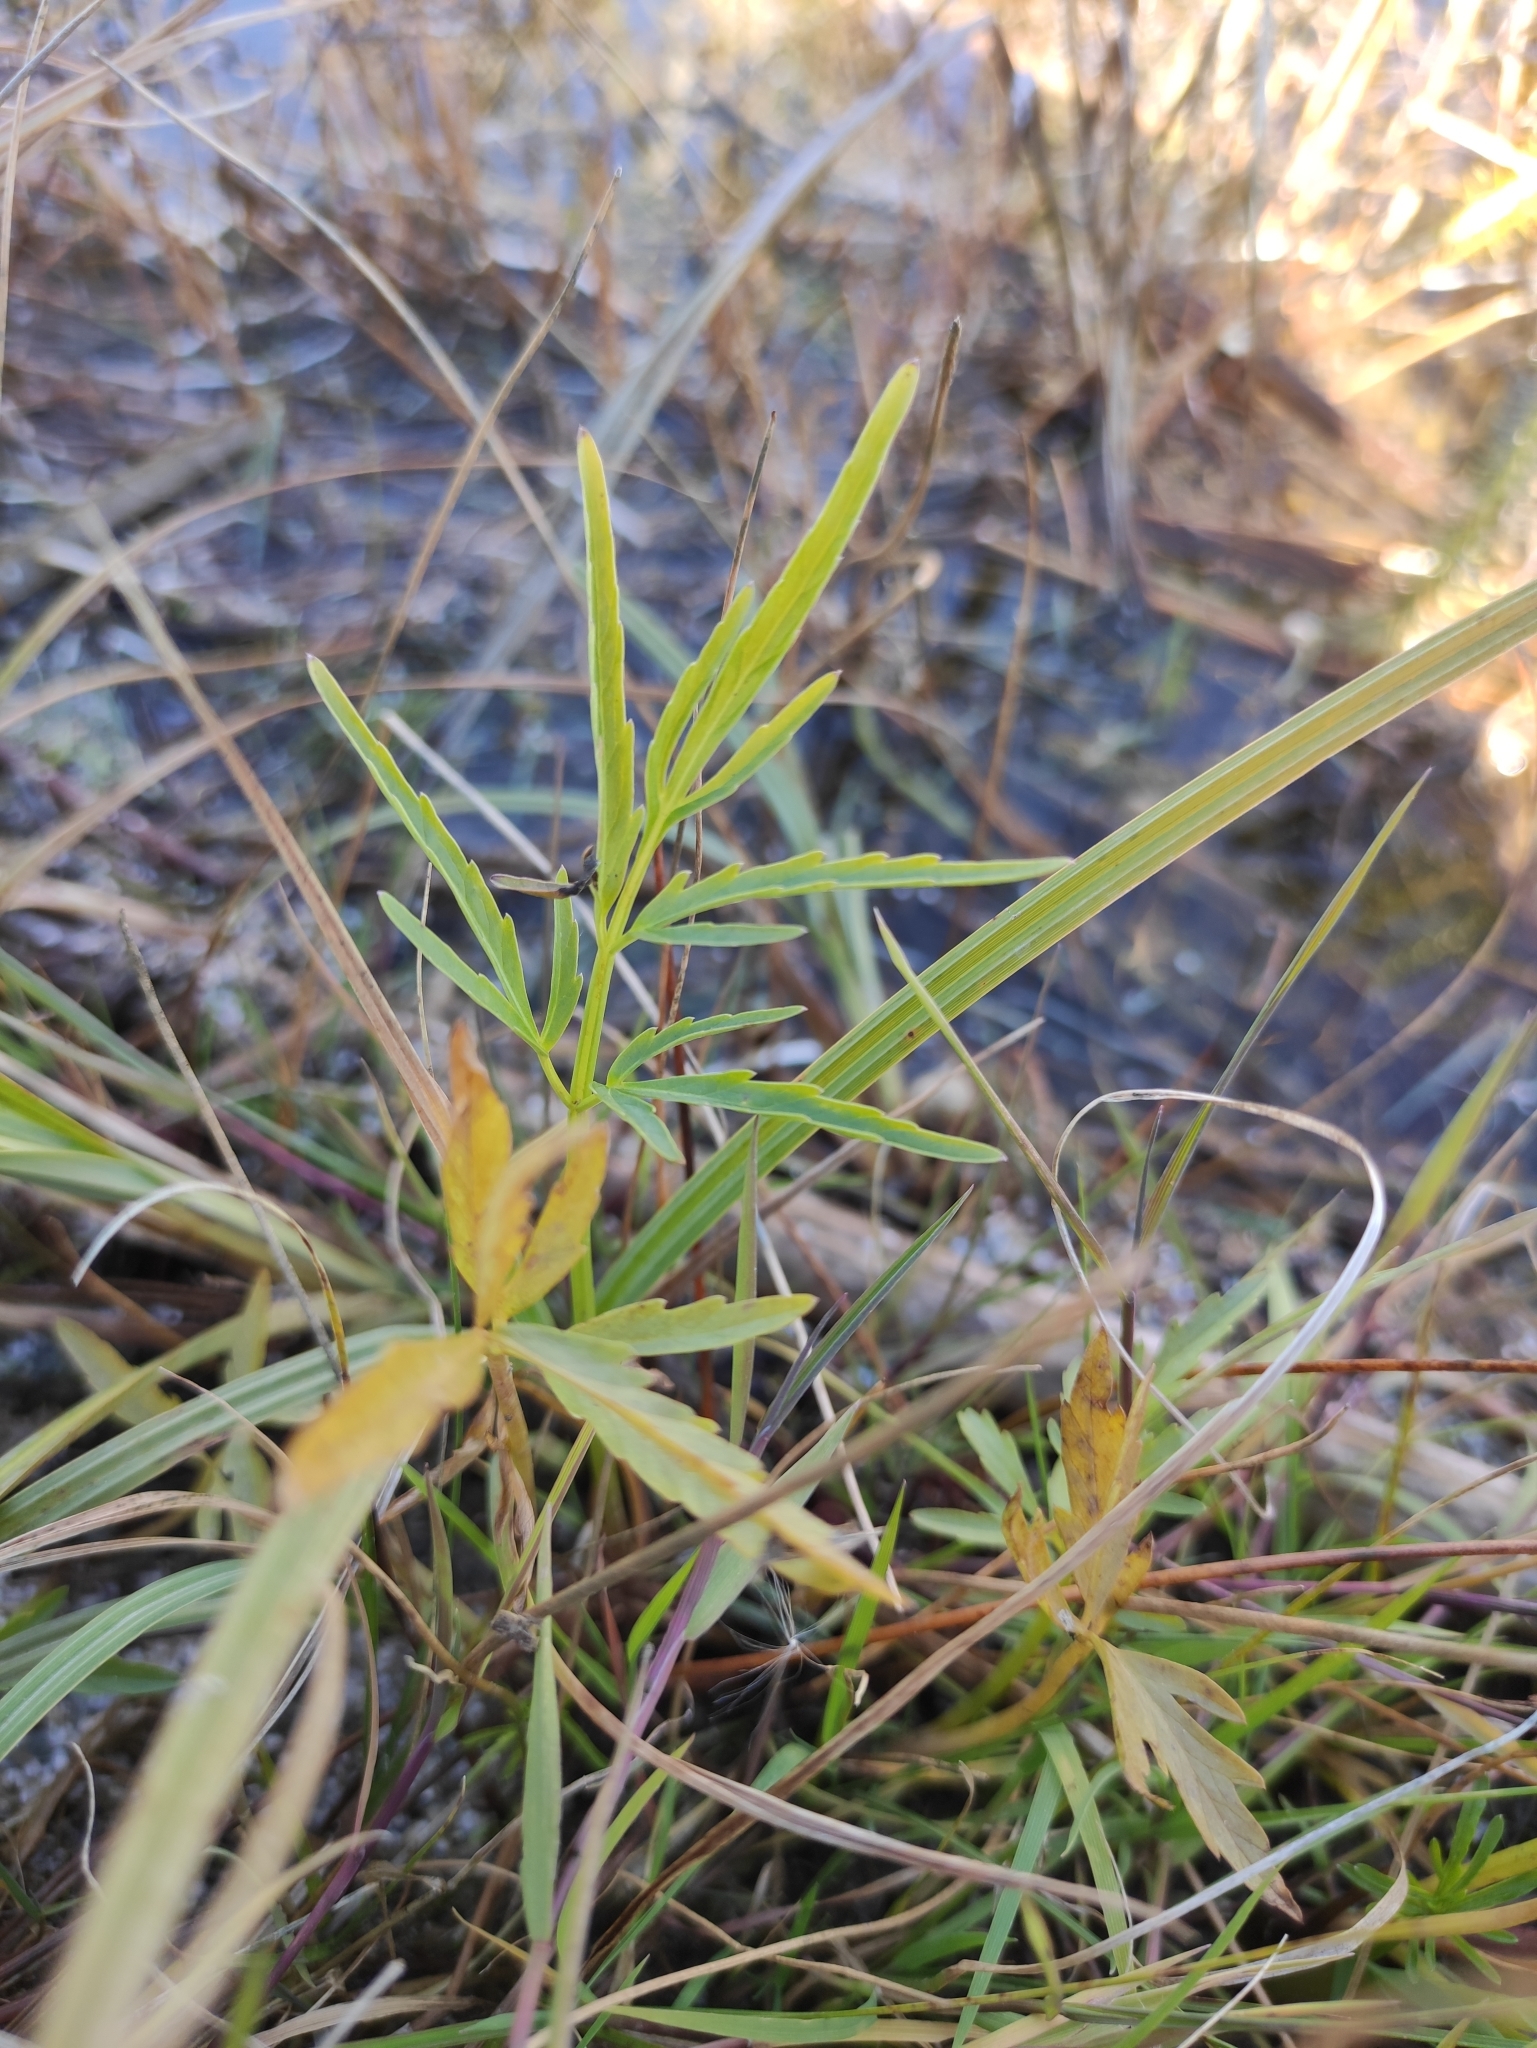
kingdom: Plantae
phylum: Tracheophyta
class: Magnoliopsida
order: Apiales
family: Apiaceae
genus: Cicuta
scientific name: Cicuta virosa
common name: Cowbane
